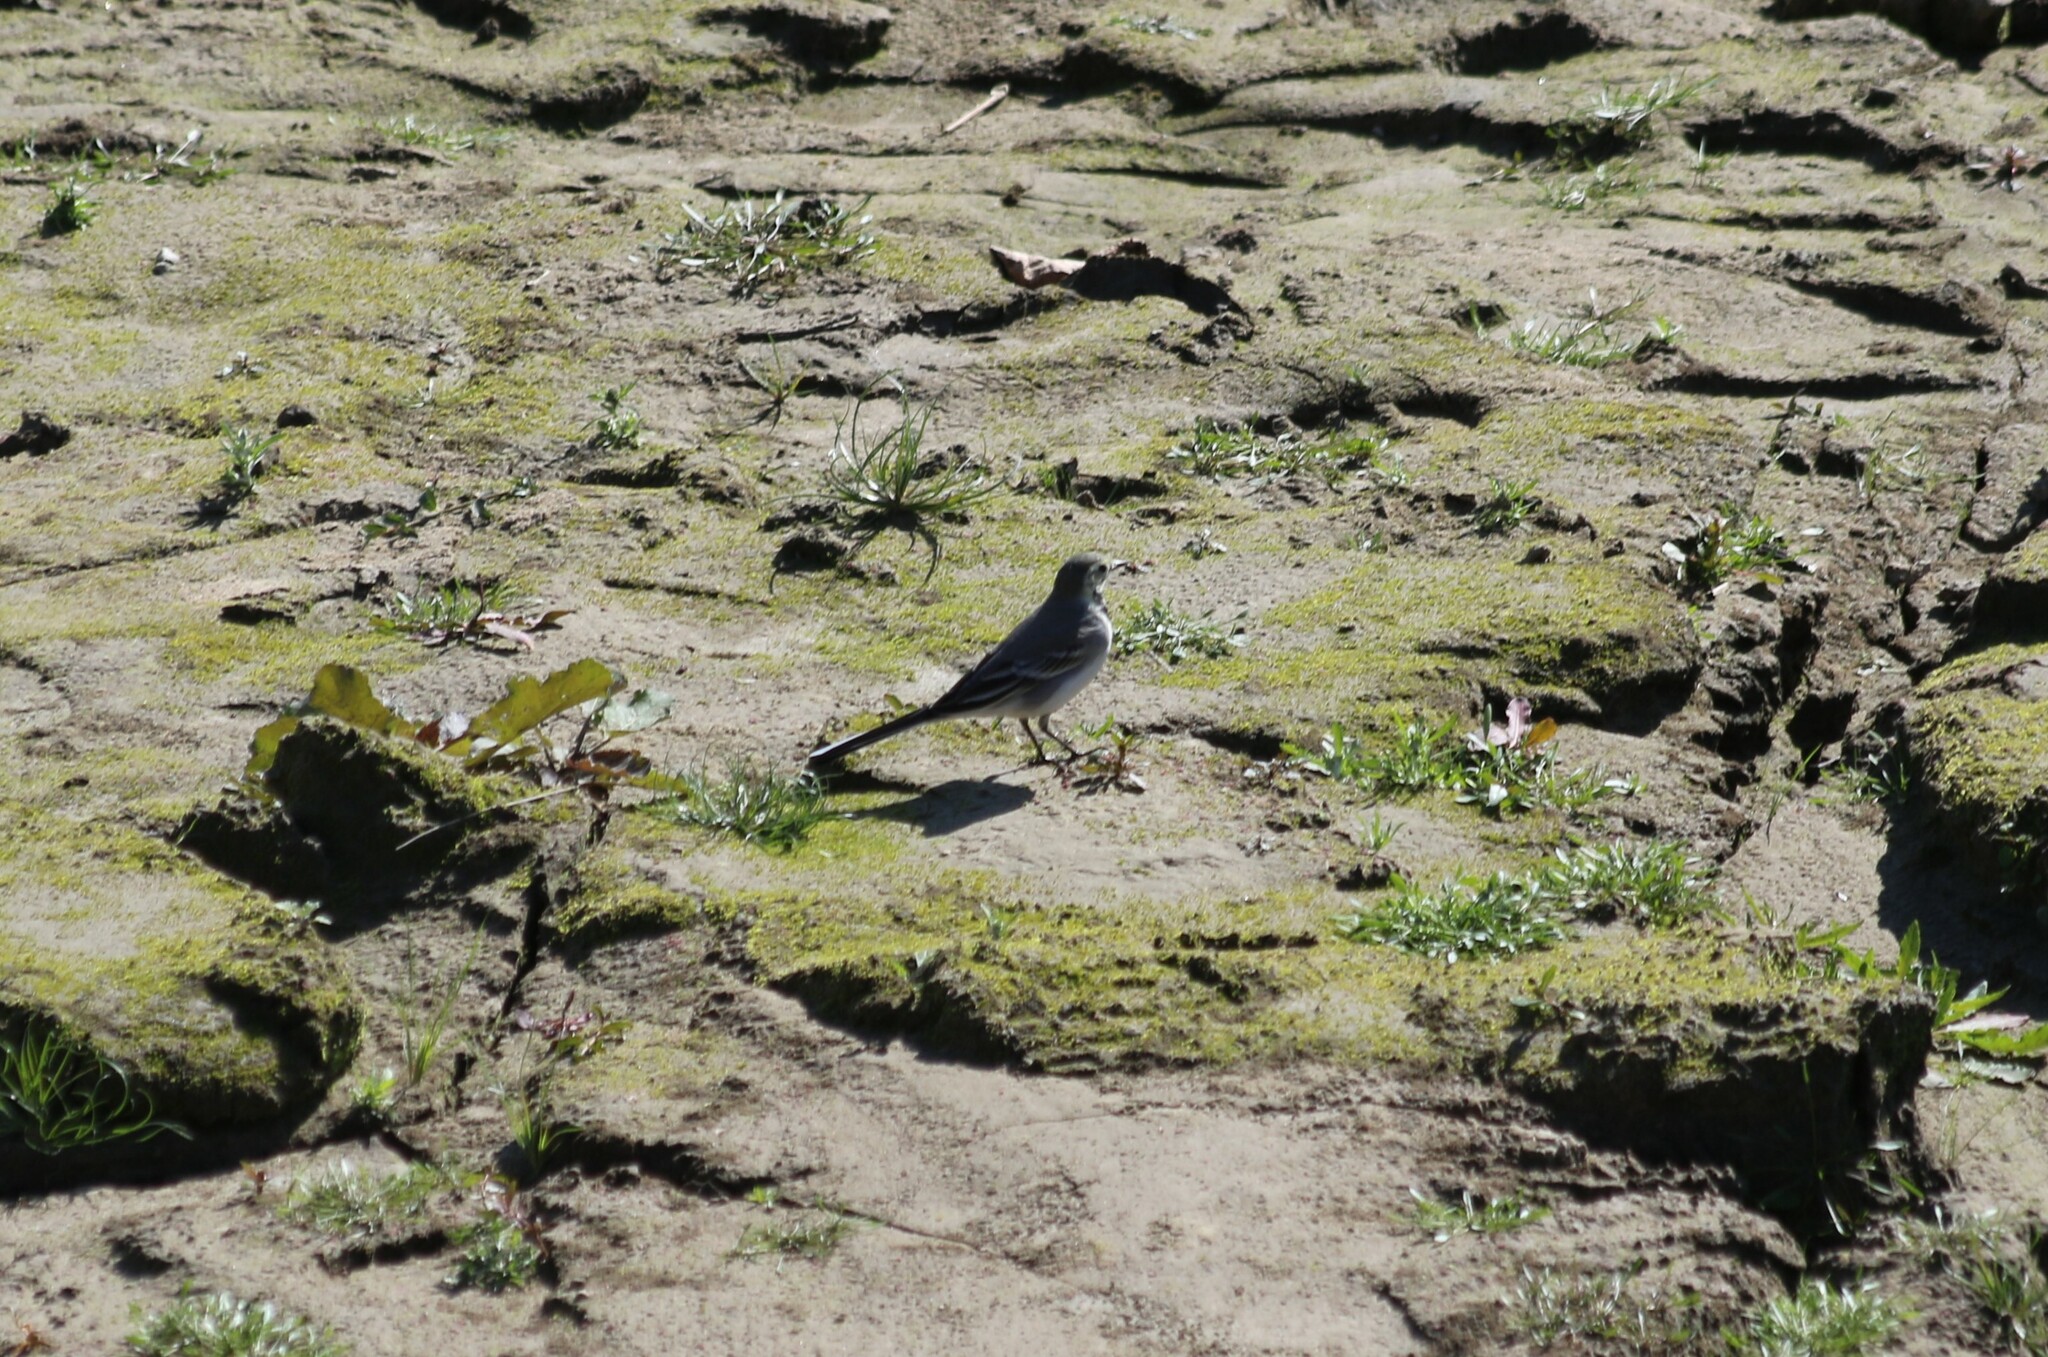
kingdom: Animalia
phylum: Chordata
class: Aves
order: Passeriformes
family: Motacillidae
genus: Motacilla
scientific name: Motacilla alba
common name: White wagtail
